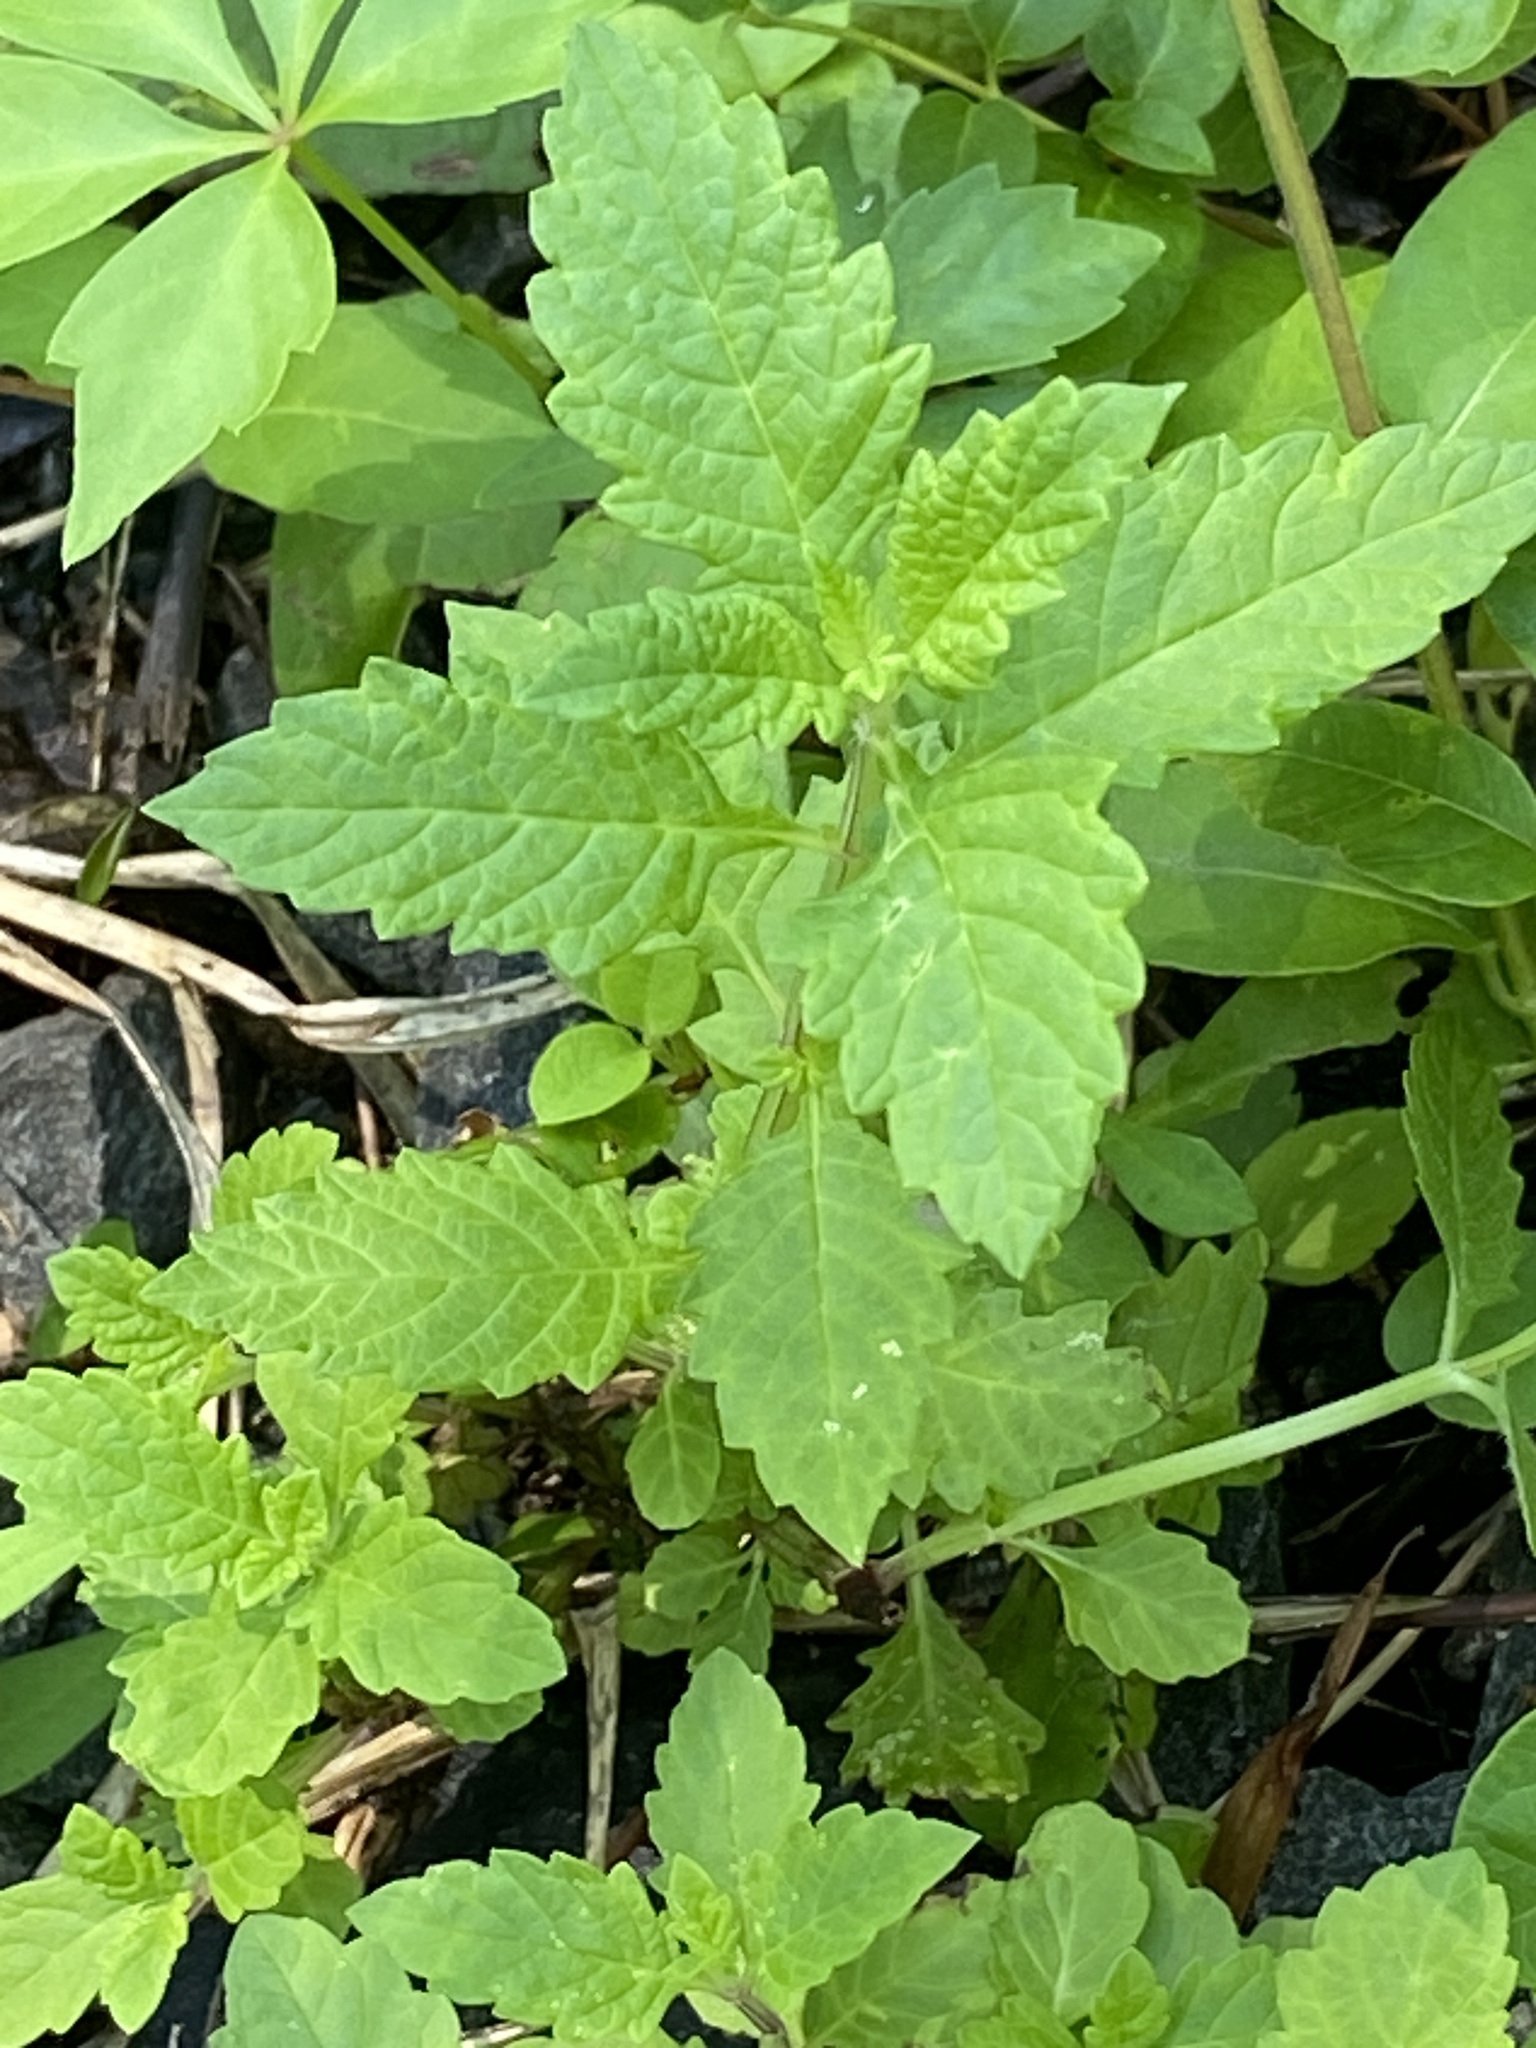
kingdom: Plantae
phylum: Tracheophyta
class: Magnoliopsida
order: Lamiales
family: Lamiaceae
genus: Lycopus
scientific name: Lycopus europaeus
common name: European bugleweed
